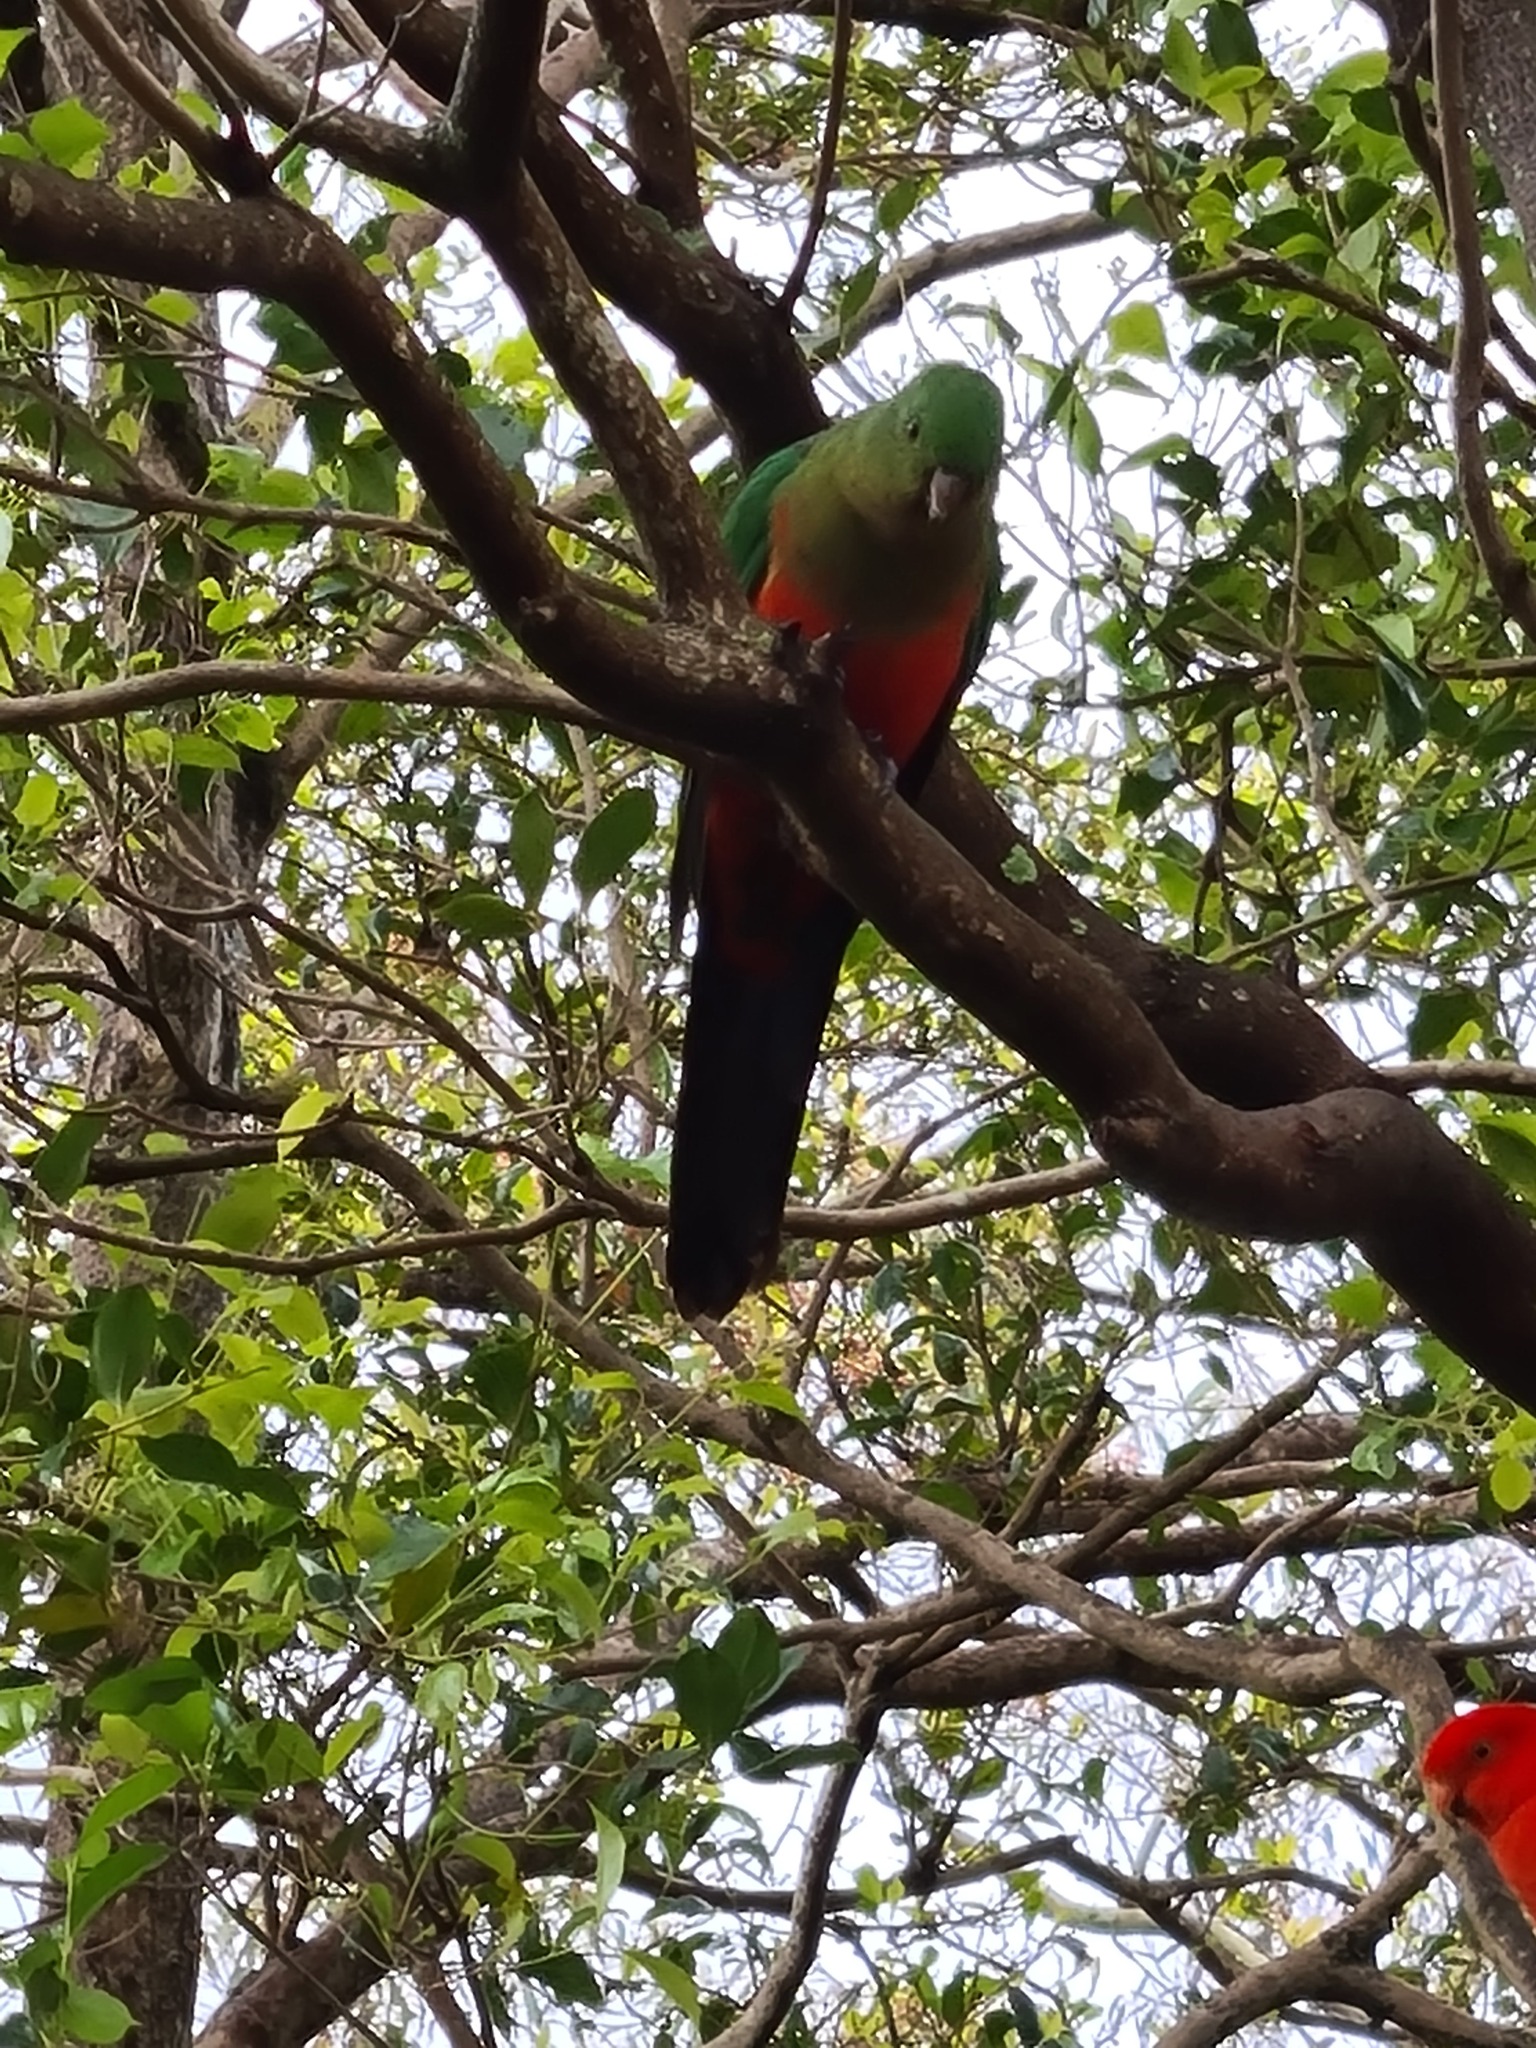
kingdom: Animalia
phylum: Chordata
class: Aves
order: Psittaciformes
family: Psittacidae
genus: Alisterus
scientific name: Alisterus scapularis
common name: Australian king parrot
